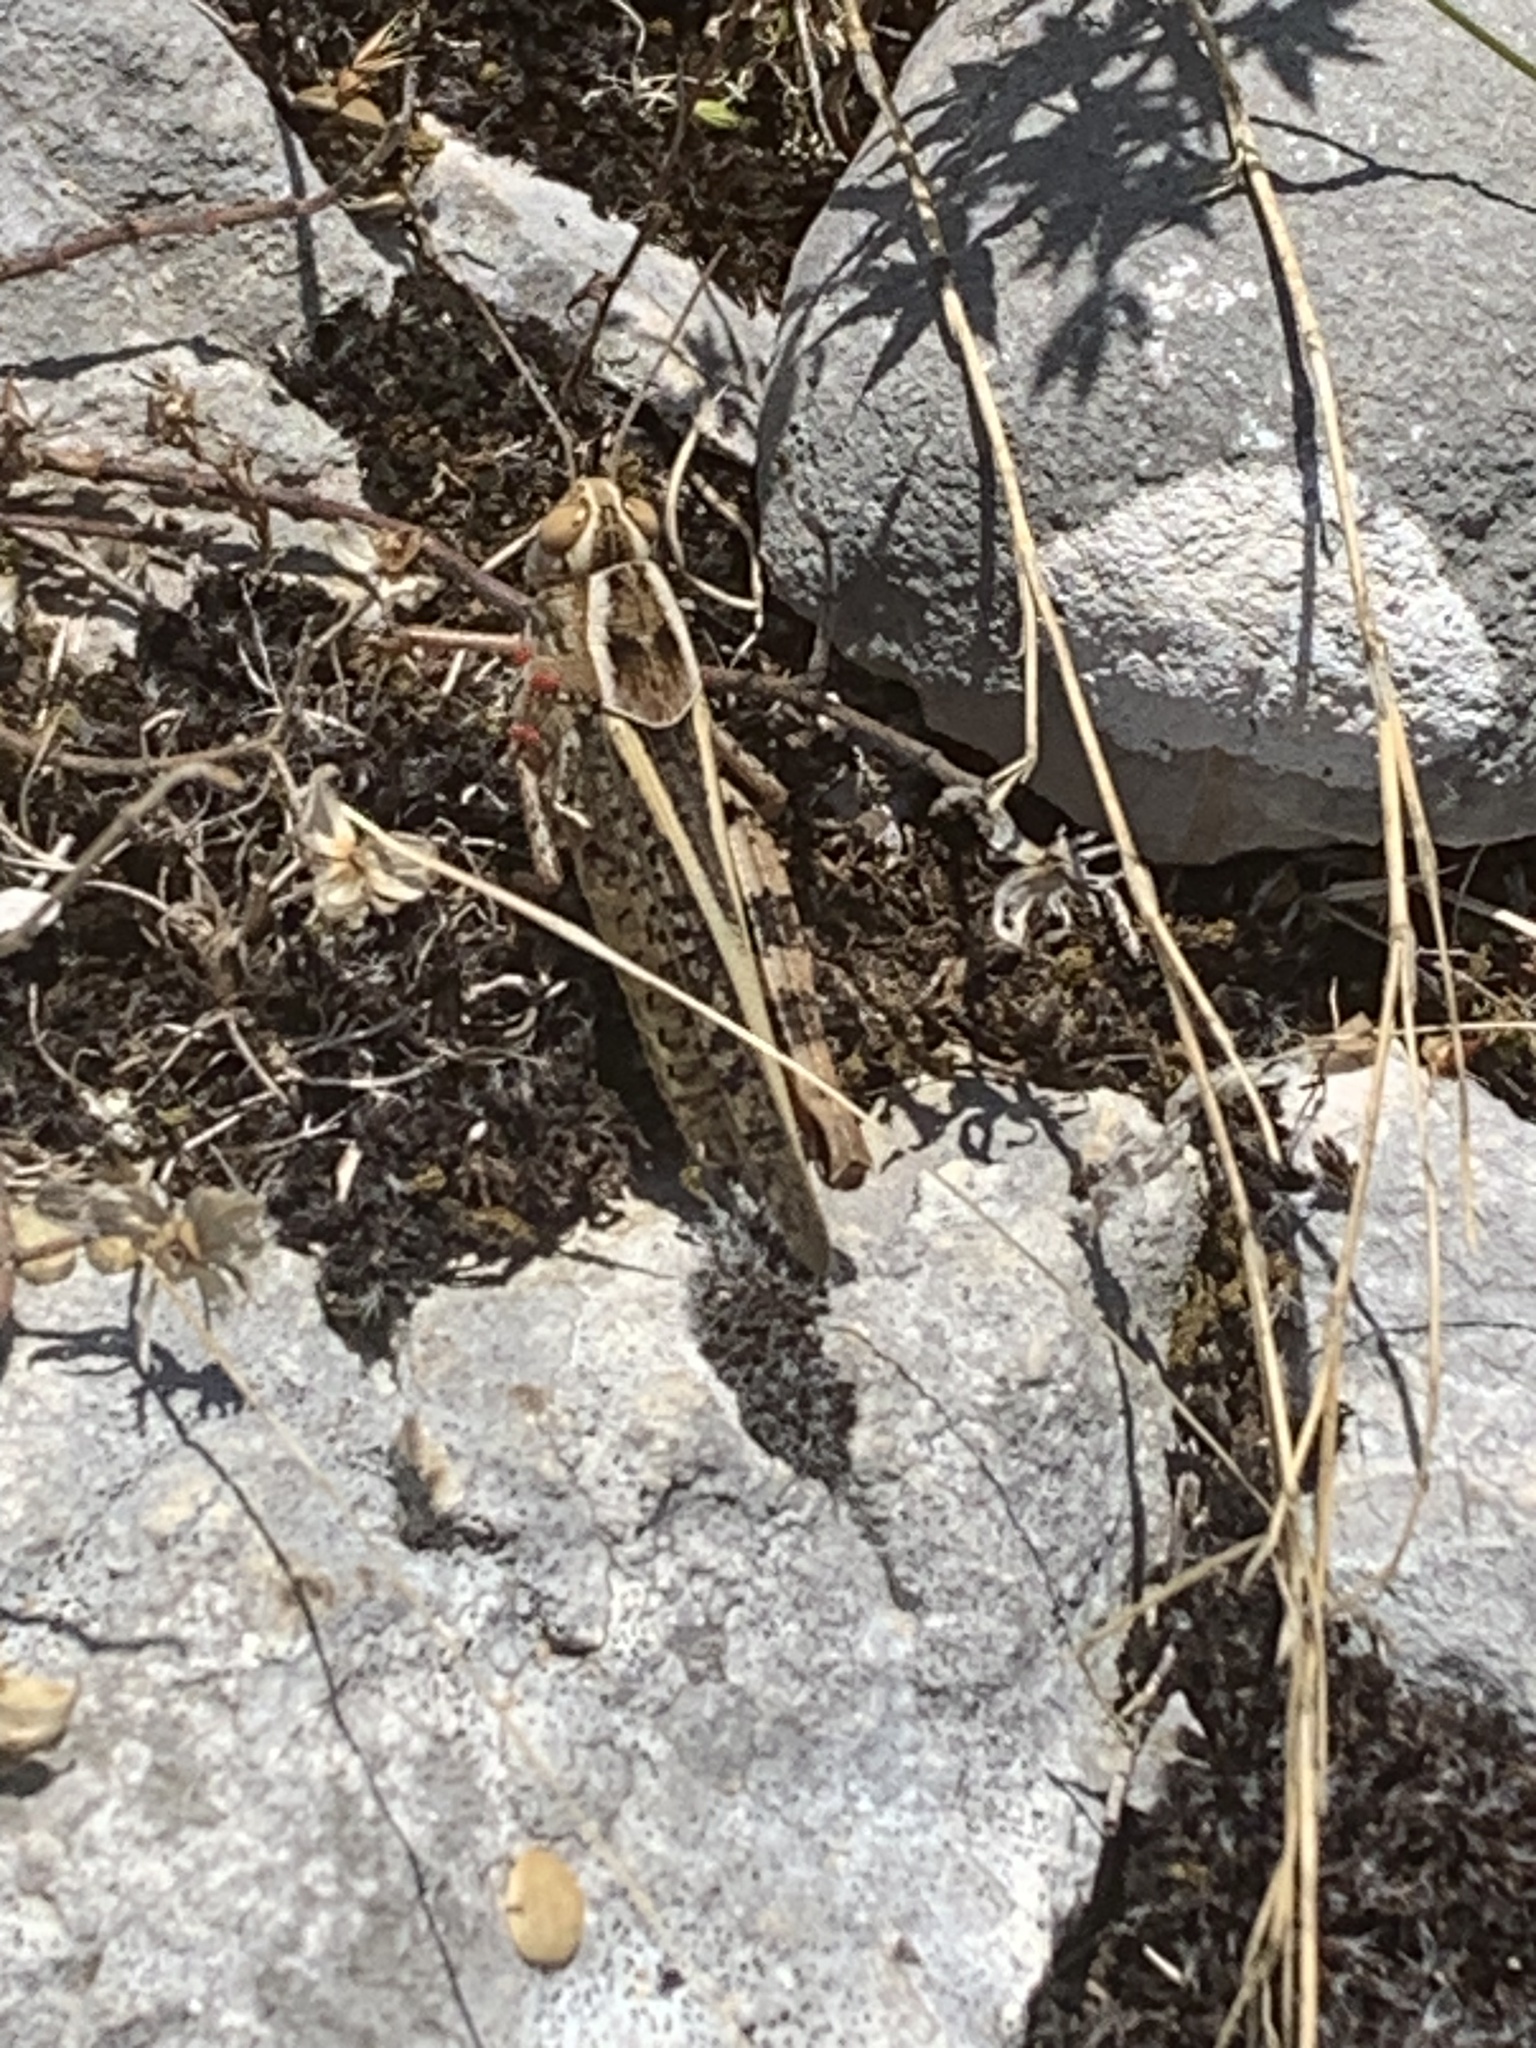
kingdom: Animalia
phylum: Arthropoda
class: Insecta
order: Orthoptera
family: Acrididae
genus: Calliptamus
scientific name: Calliptamus italicus
